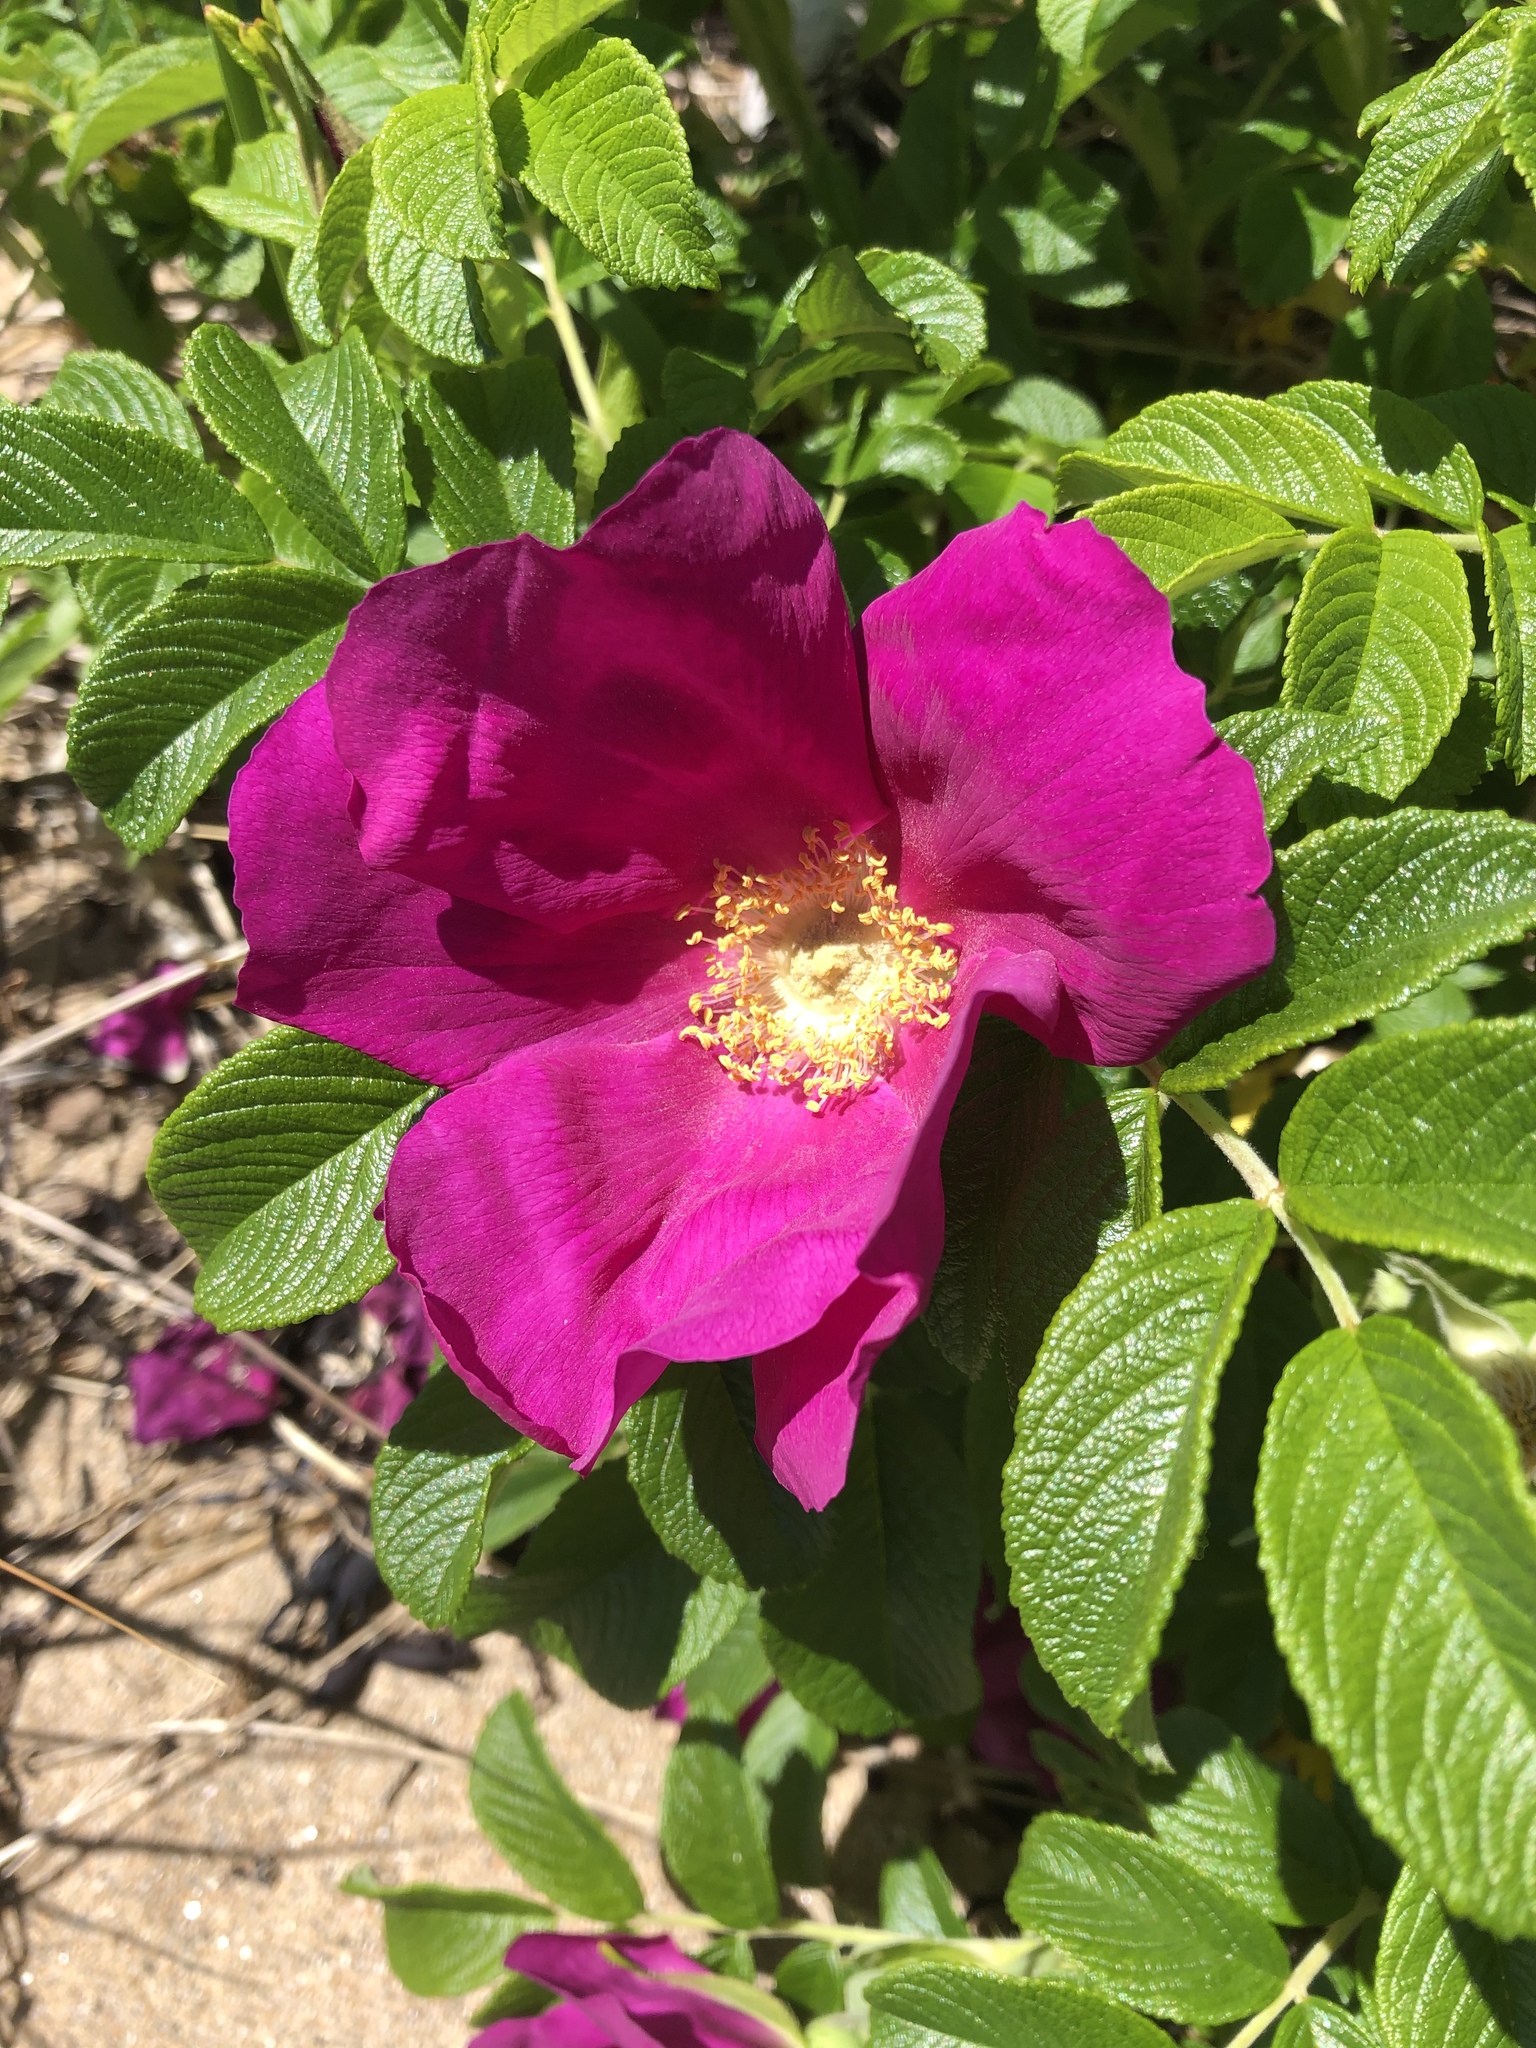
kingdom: Plantae
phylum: Tracheophyta
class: Magnoliopsida
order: Rosales
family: Rosaceae
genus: Rosa
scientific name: Rosa rugosa
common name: Japanese rose
